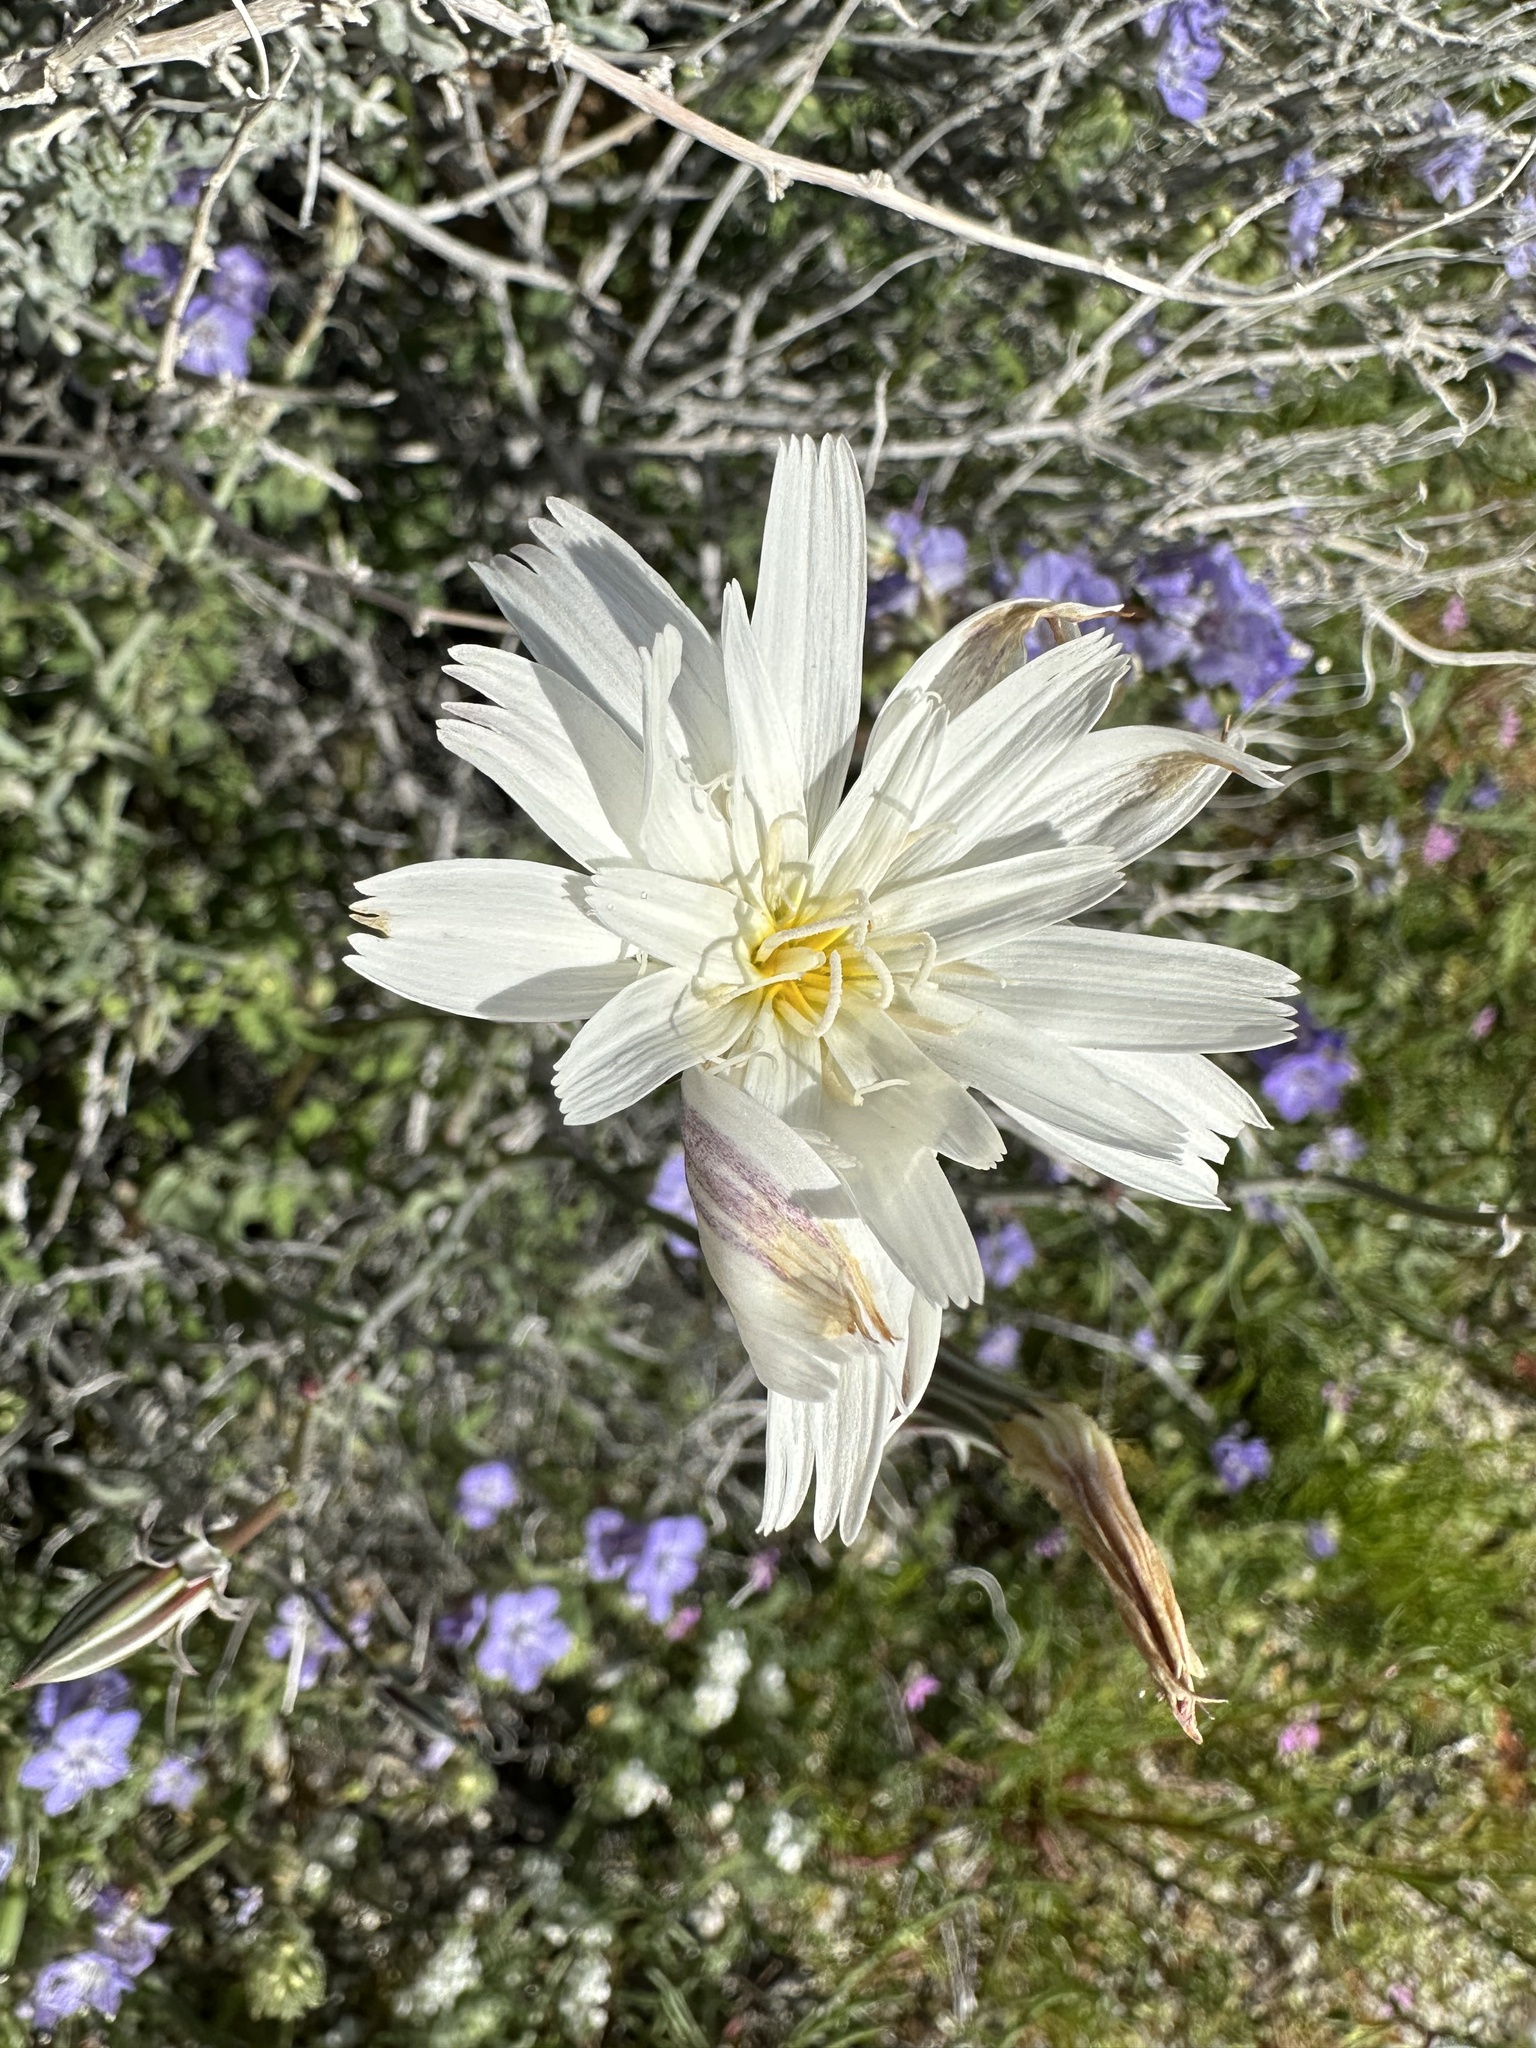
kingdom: Plantae
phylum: Tracheophyta
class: Magnoliopsida
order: Asterales
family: Asteraceae
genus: Rafinesquia
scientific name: Rafinesquia neomexicana
